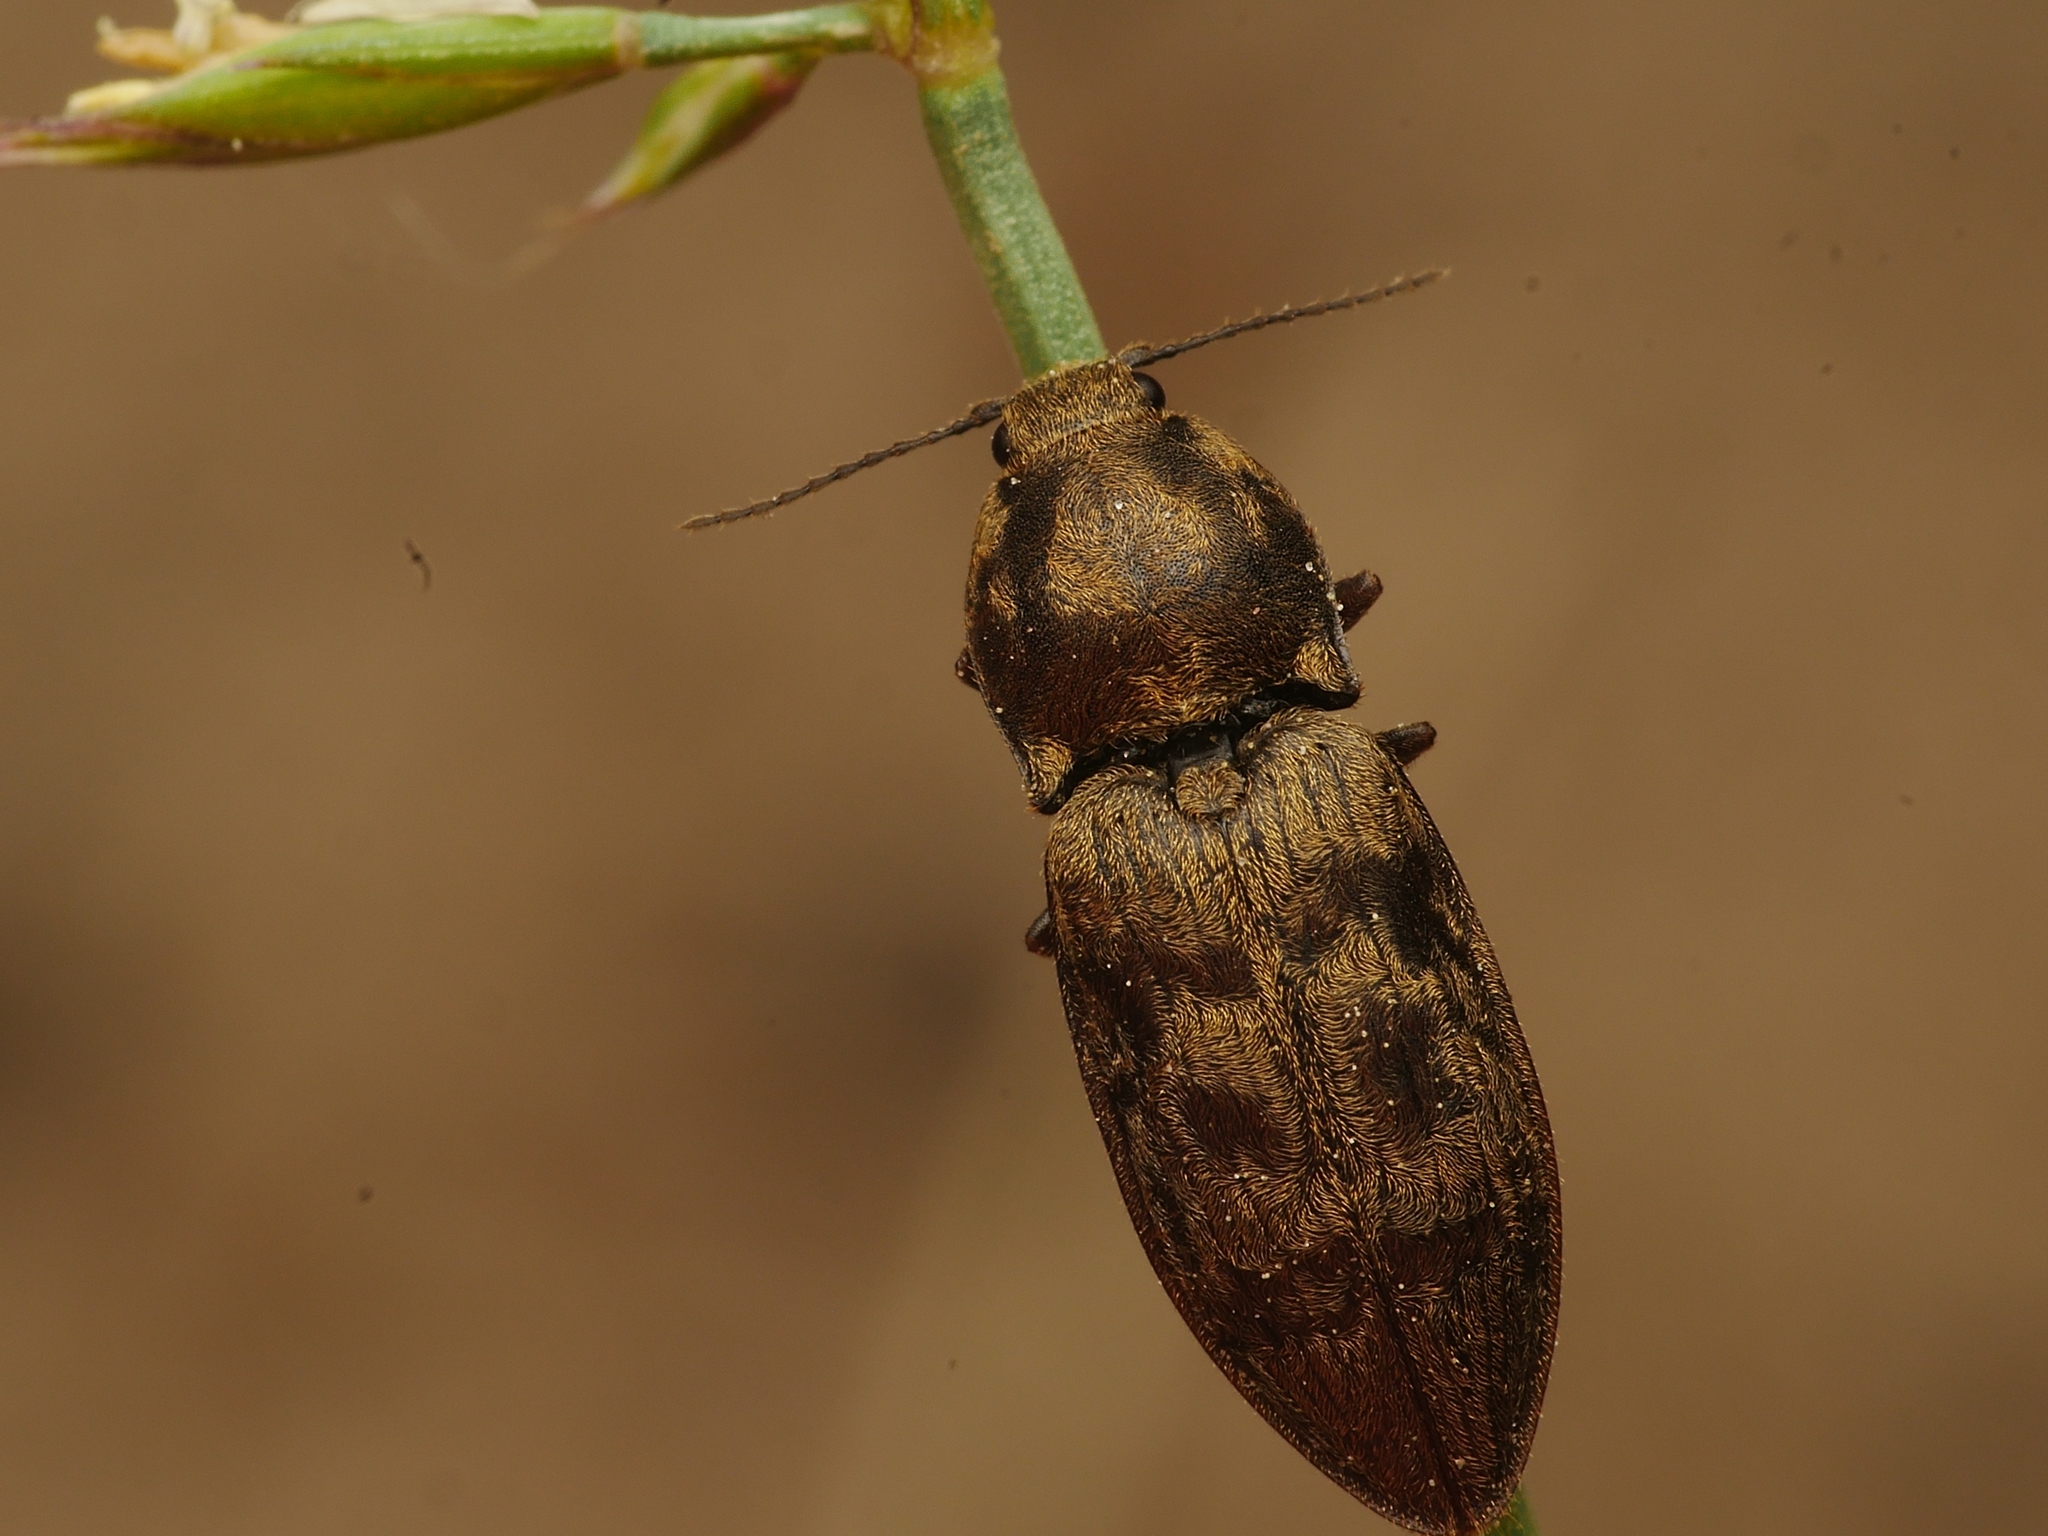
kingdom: Animalia
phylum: Arthropoda
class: Insecta
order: Coleoptera
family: Elateridae
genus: Prosternon
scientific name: Prosternon tessellatum
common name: Chequered click beetle
